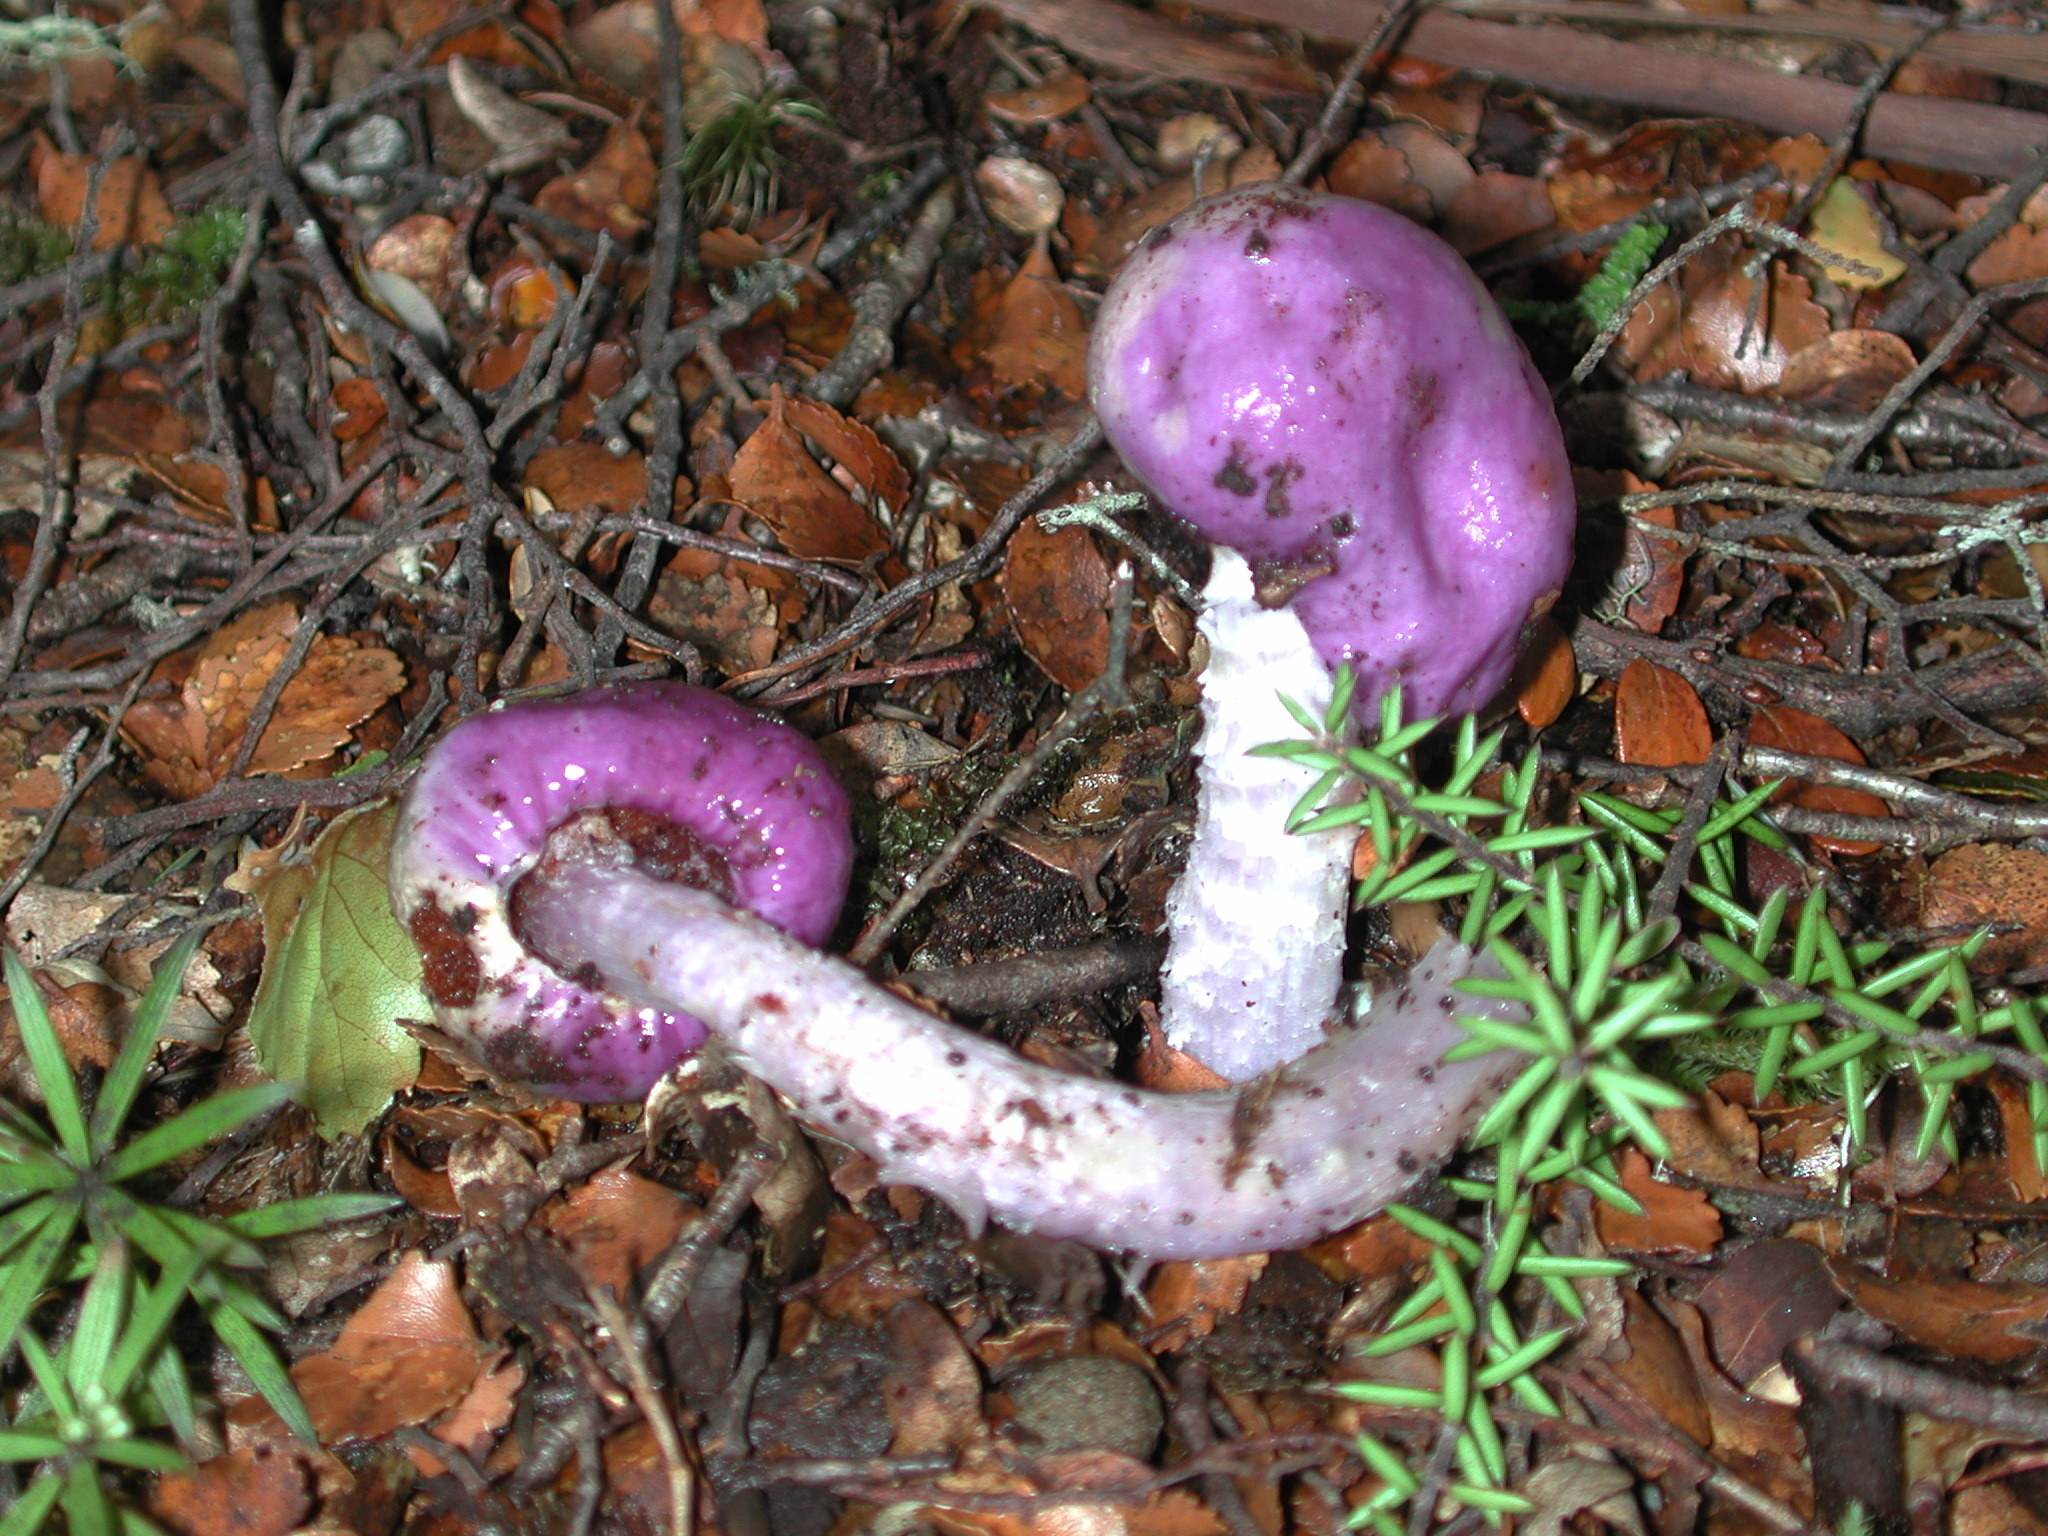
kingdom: Fungi
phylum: Basidiomycota
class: Agaricomycetes
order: Agaricales
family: Cortinariaceae
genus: Cortinarius
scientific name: Cortinarius violaceovolvatus
